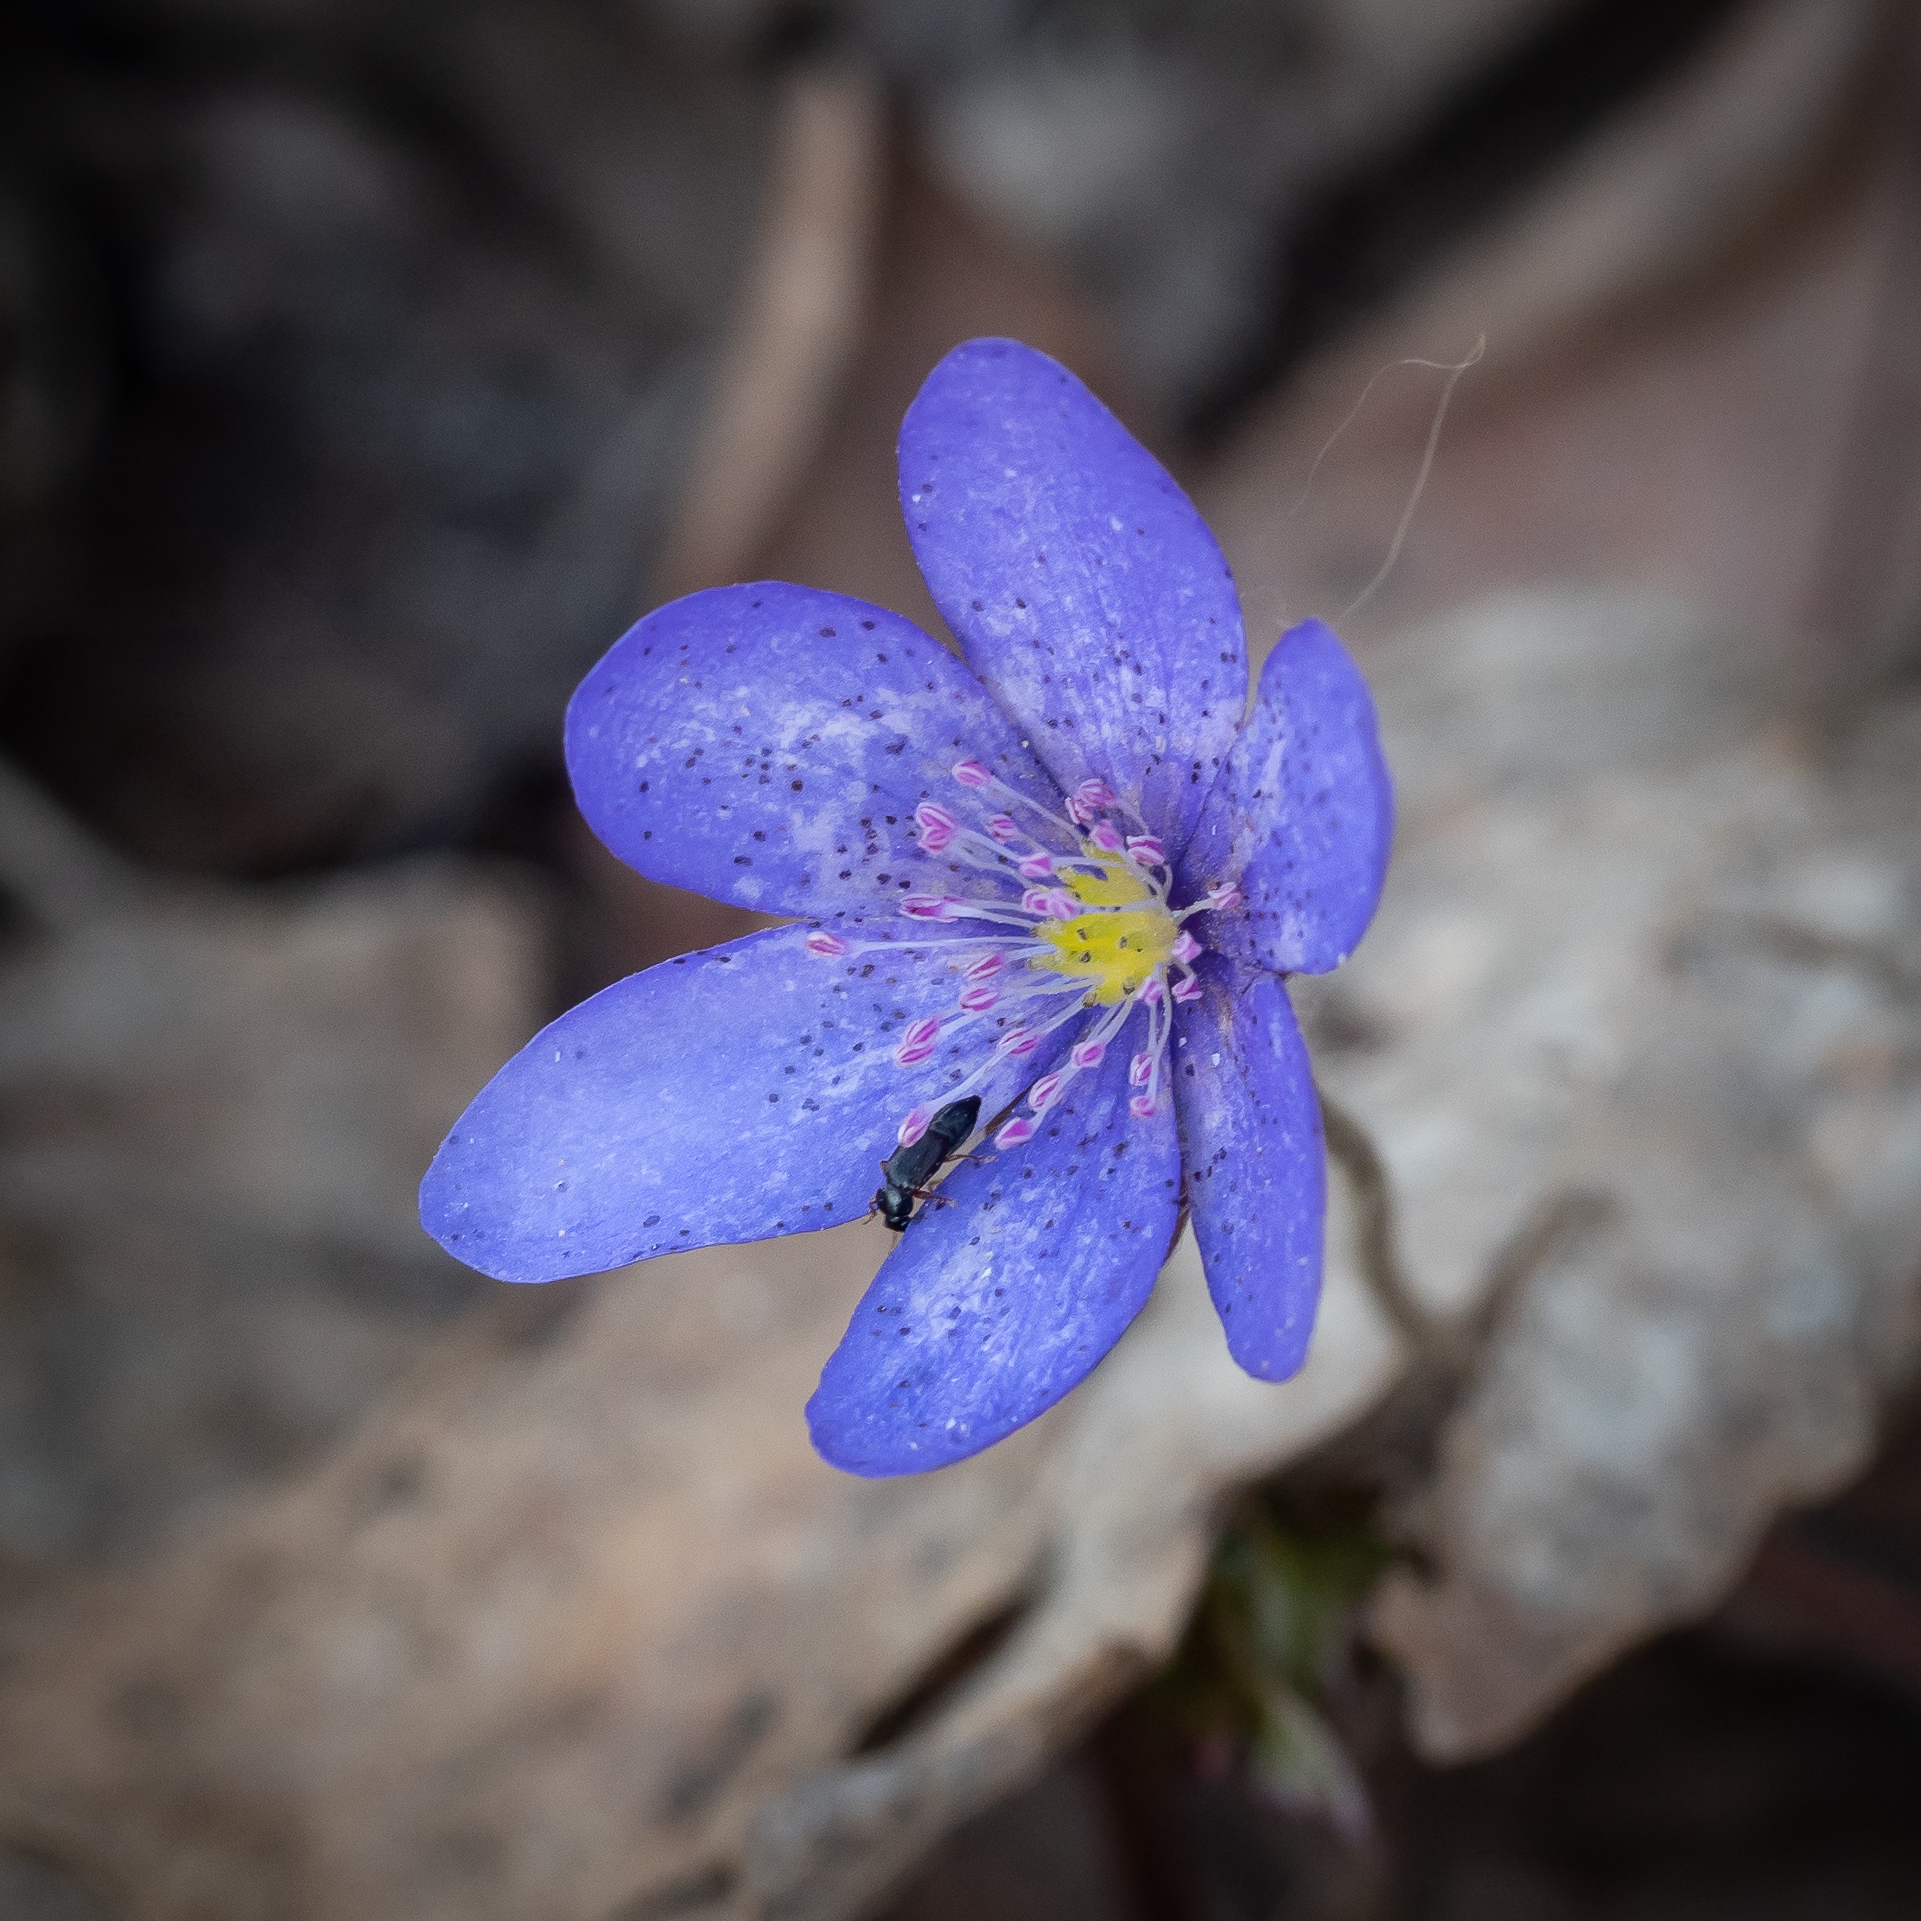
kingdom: Plantae
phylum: Tracheophyta
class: Magnoliopsida
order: Ranunculales
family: Ranunculaceae
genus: Hepatica
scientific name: Hepatica nobilis
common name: Liverleaf
